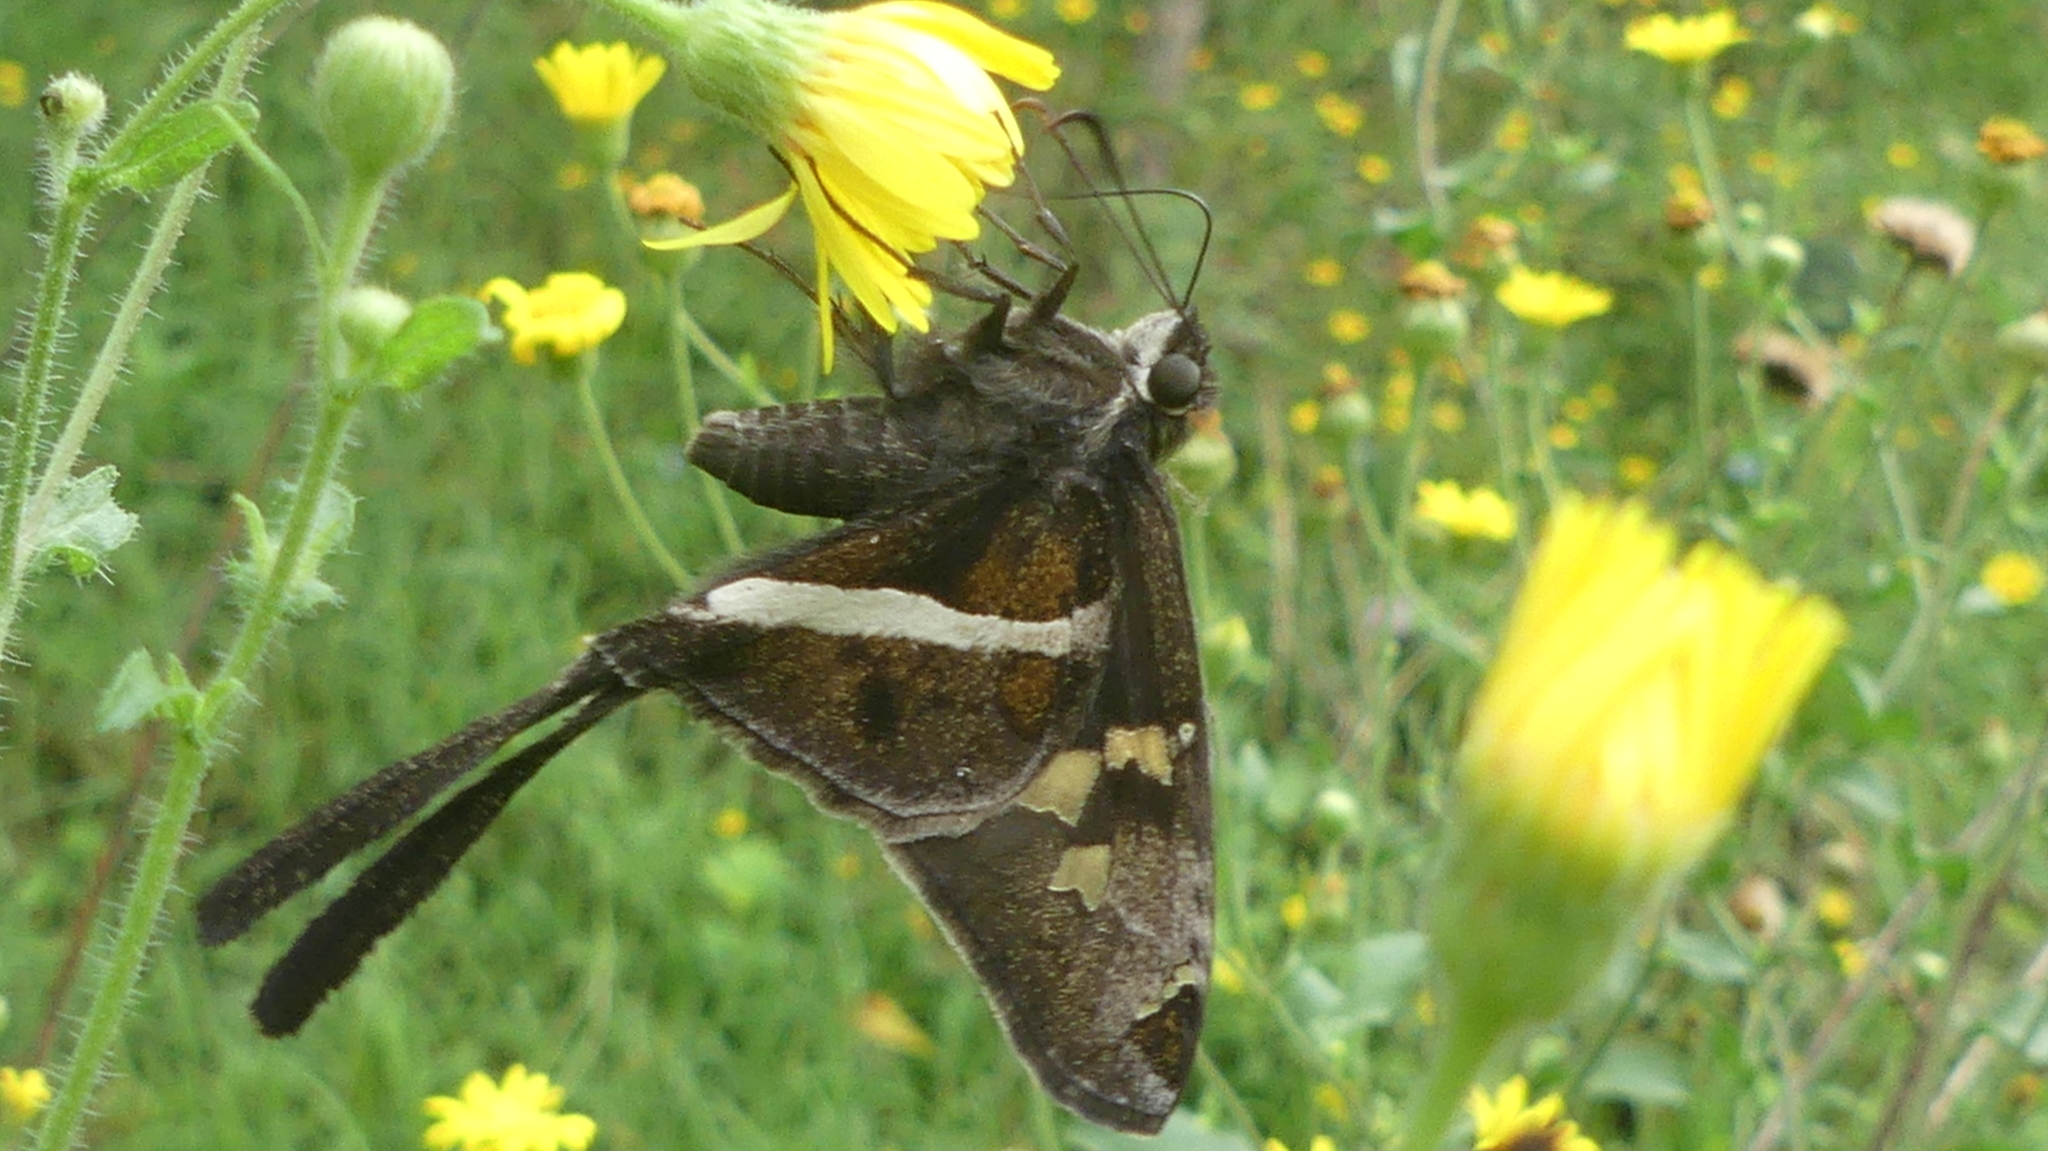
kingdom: Animalia
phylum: Arthropoda
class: Insecta
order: Lepidoptera
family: Hesperiidae
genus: Chioides
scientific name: Chioides catillus
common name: Silverbanded skipper
